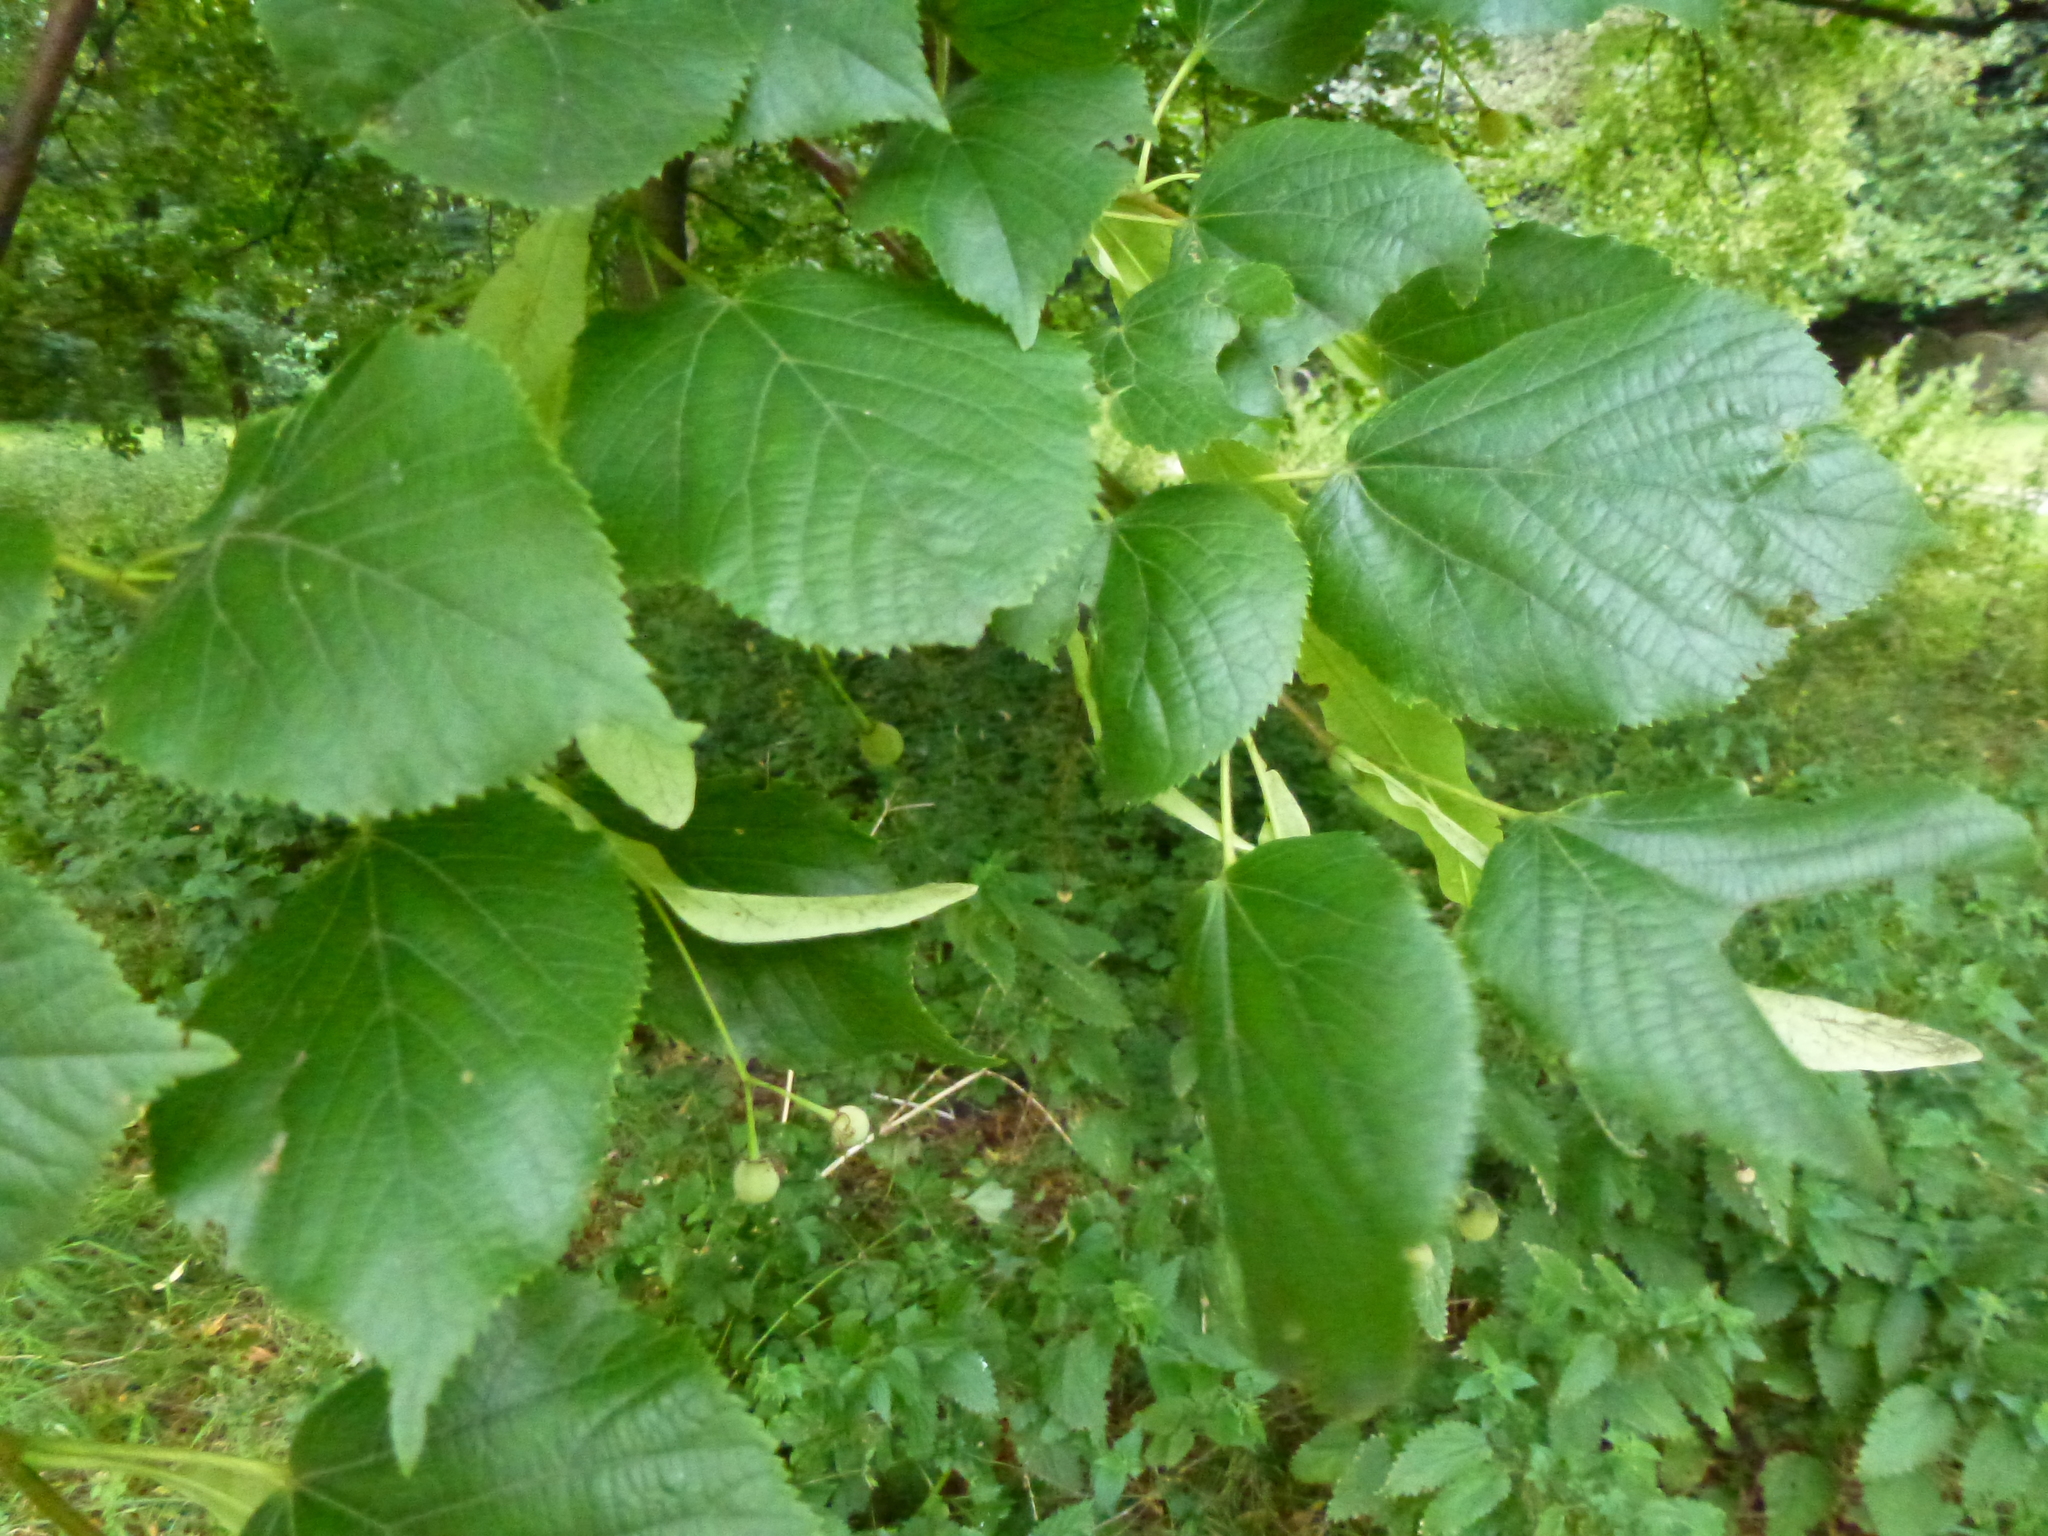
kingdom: Plantae
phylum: Tracheophyta
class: Magnoliopsida
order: Malvales
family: Malvaceae
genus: Tilia
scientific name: Tilia europaea
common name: European linden
